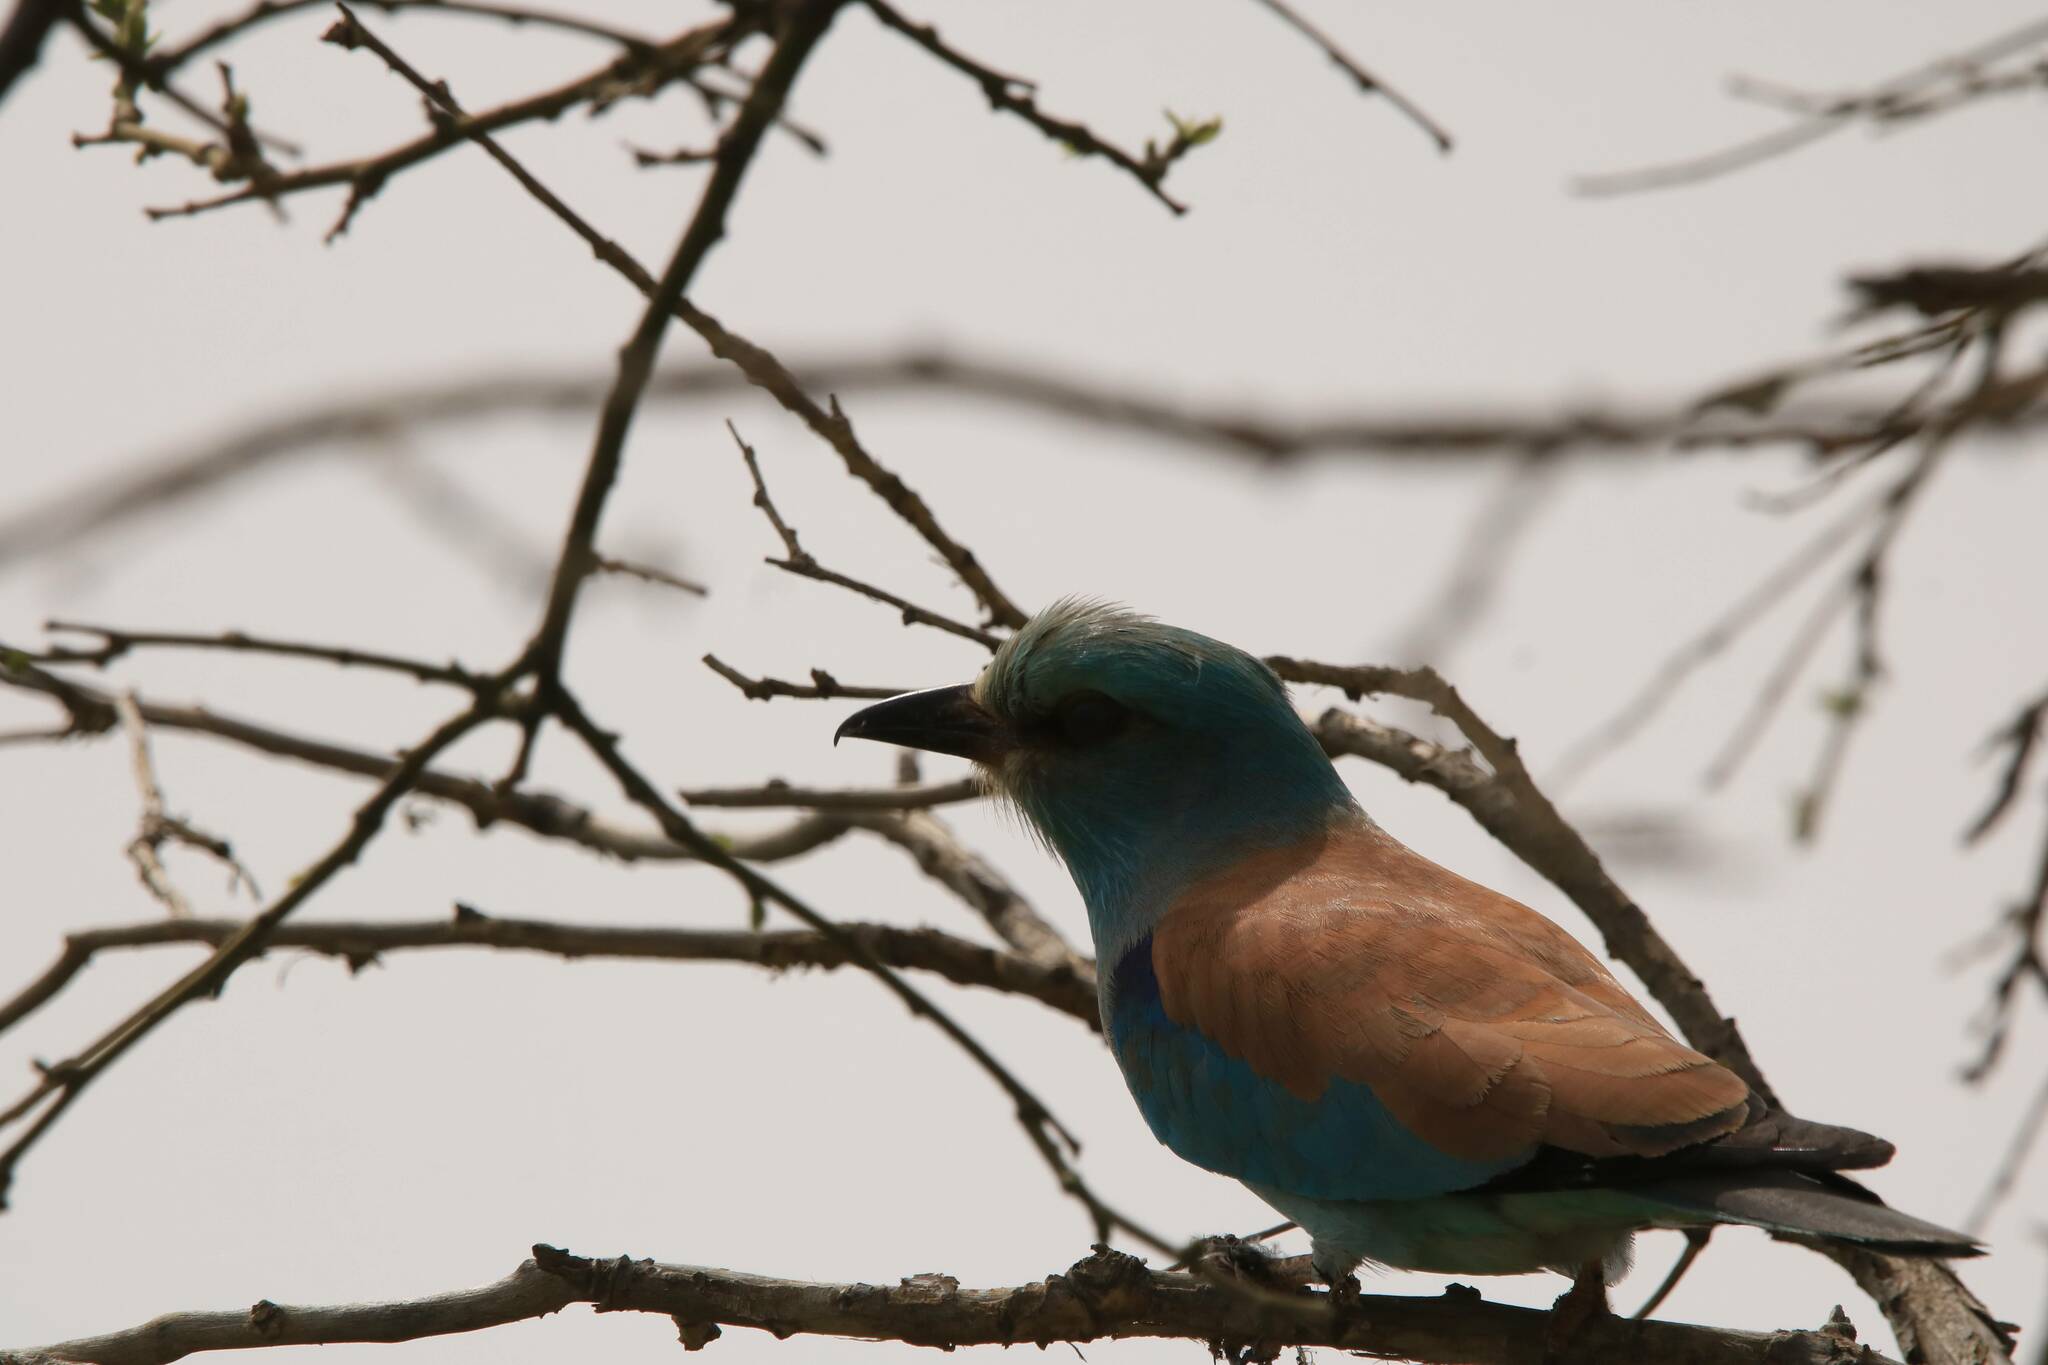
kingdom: Animalia
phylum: Chordata
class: Aves
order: Coraciiformes
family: Coraciidae
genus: Coracias
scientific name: Coracias garrulus
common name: European roller
